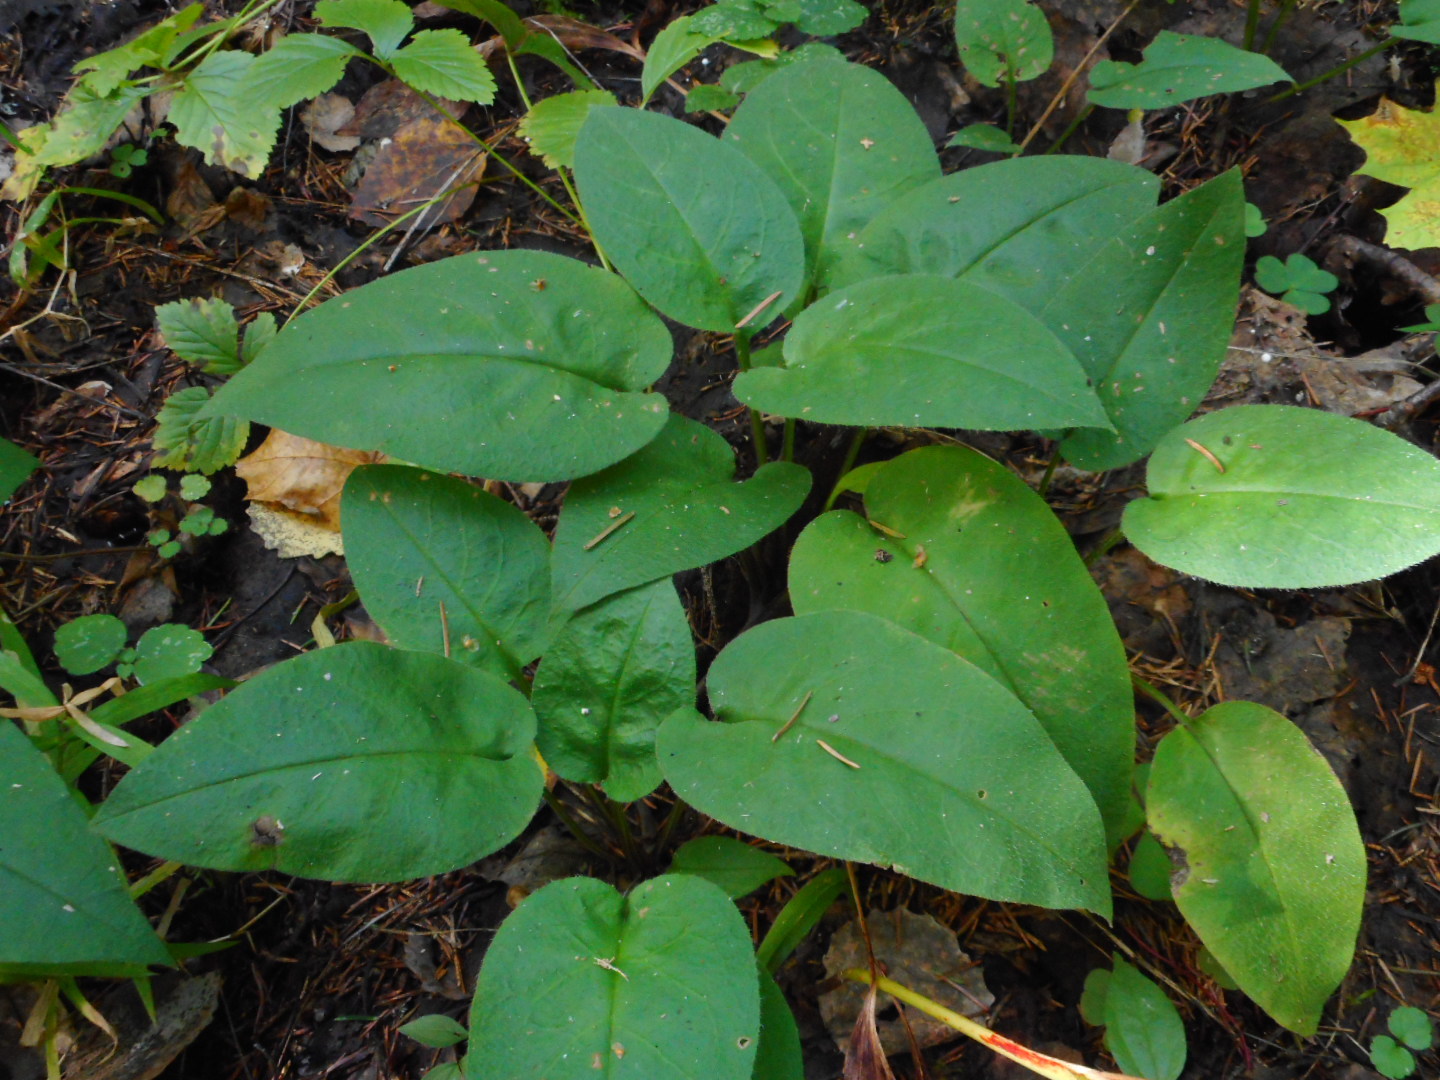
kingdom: Plantae
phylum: Tracheophyta
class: Magnoliopsida
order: Boraginales
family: Boraginaceae
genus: Pulmonaria
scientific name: Pulmonaria obscura
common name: Suffolk lungwort
